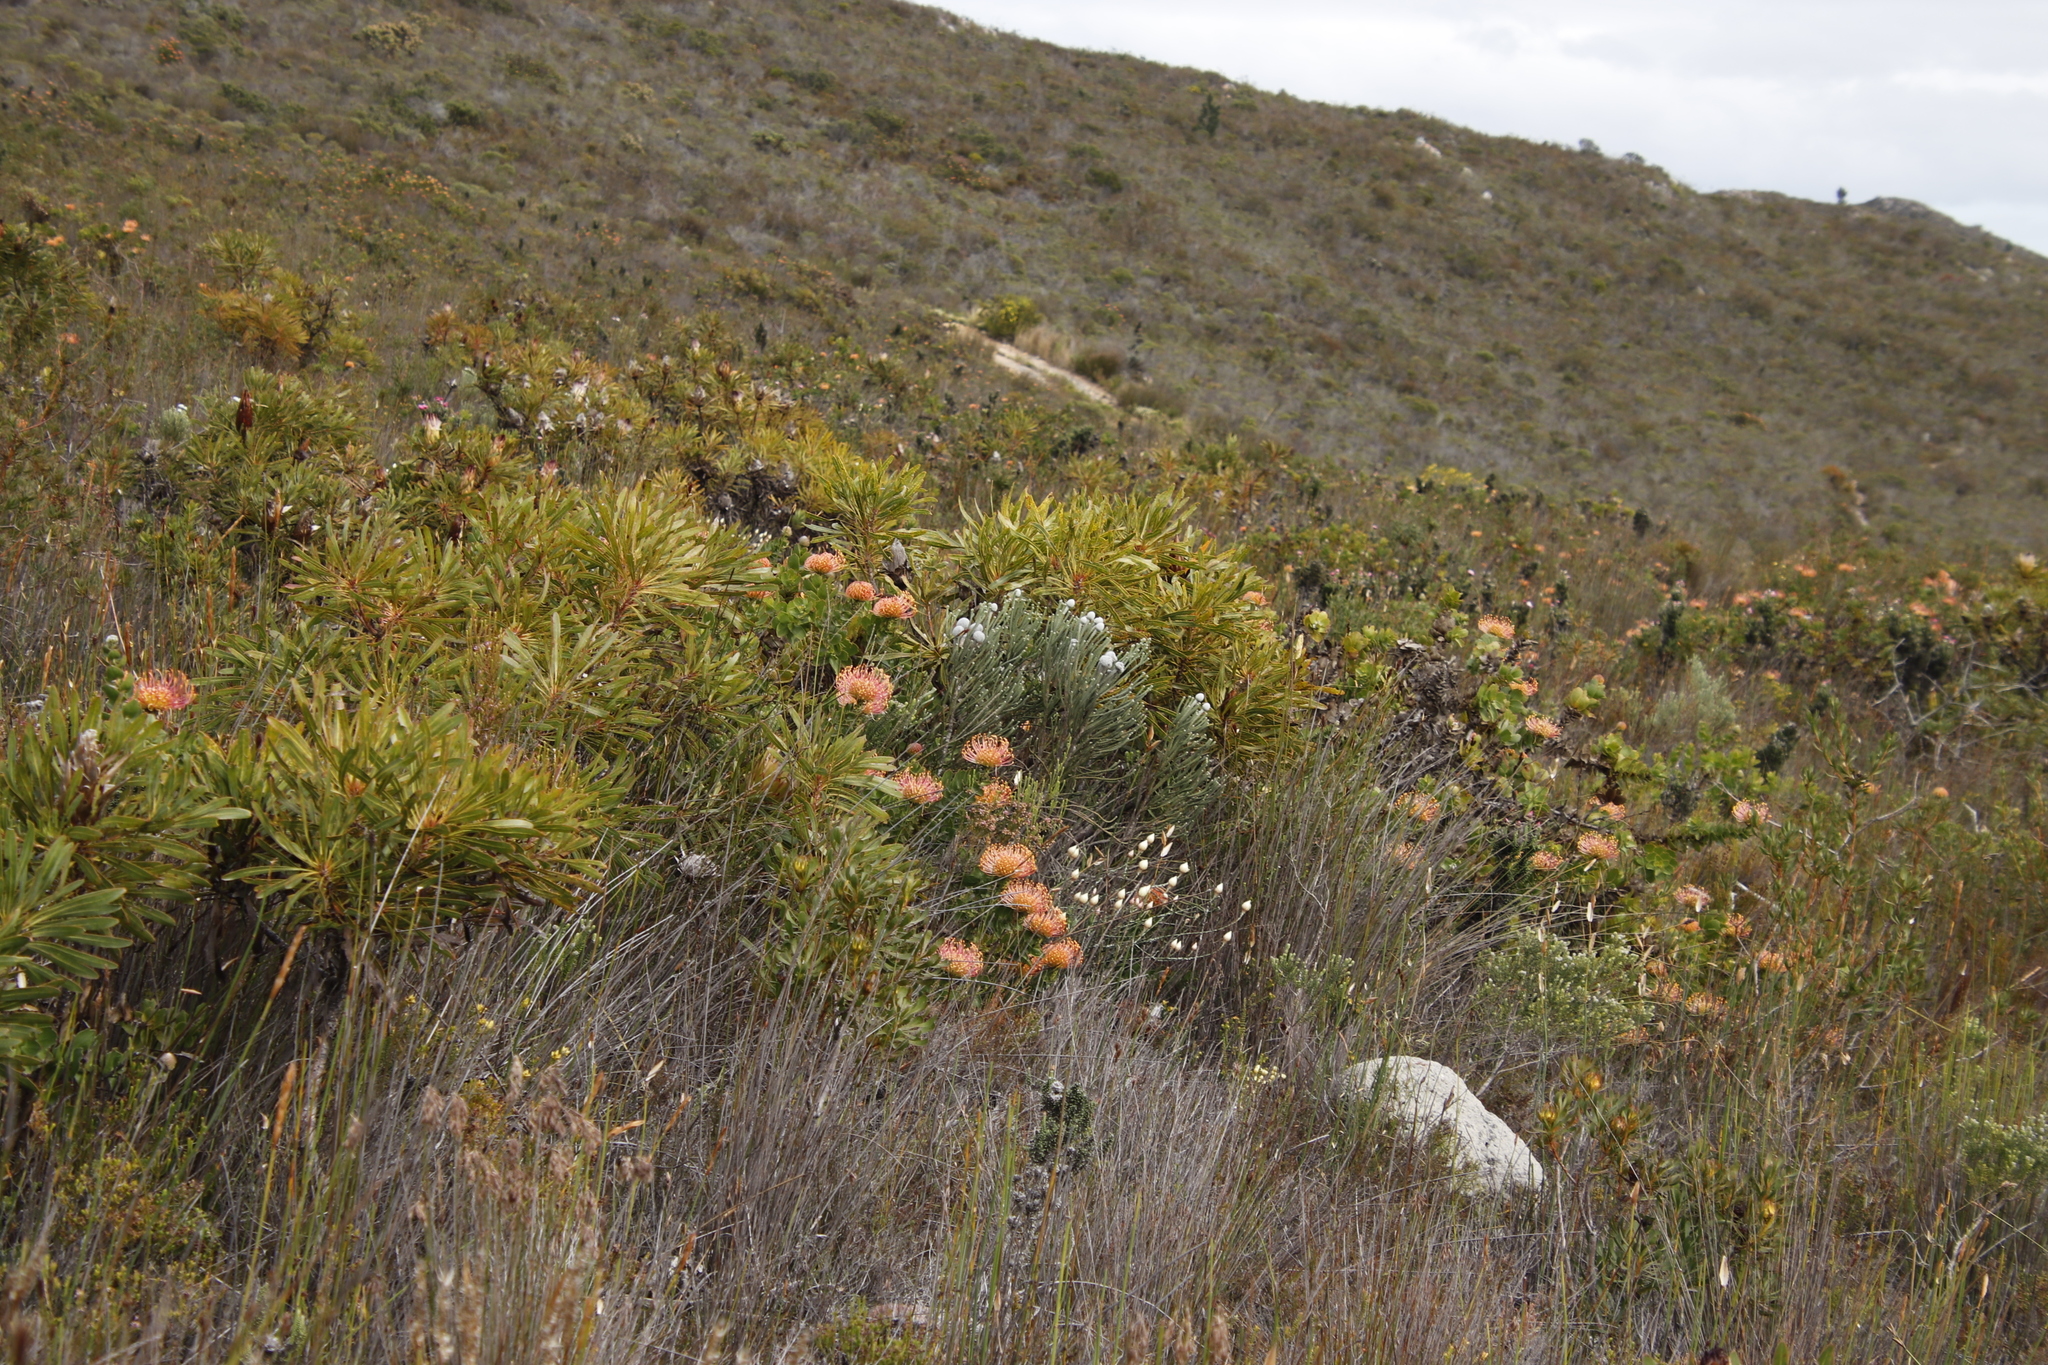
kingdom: Plantae
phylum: Tracheophyta
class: Magnoliopsida
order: Proteales
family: Proteaceae
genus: Leucospermum
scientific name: Leucospermum cordifolium
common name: Red pincushion-protea
